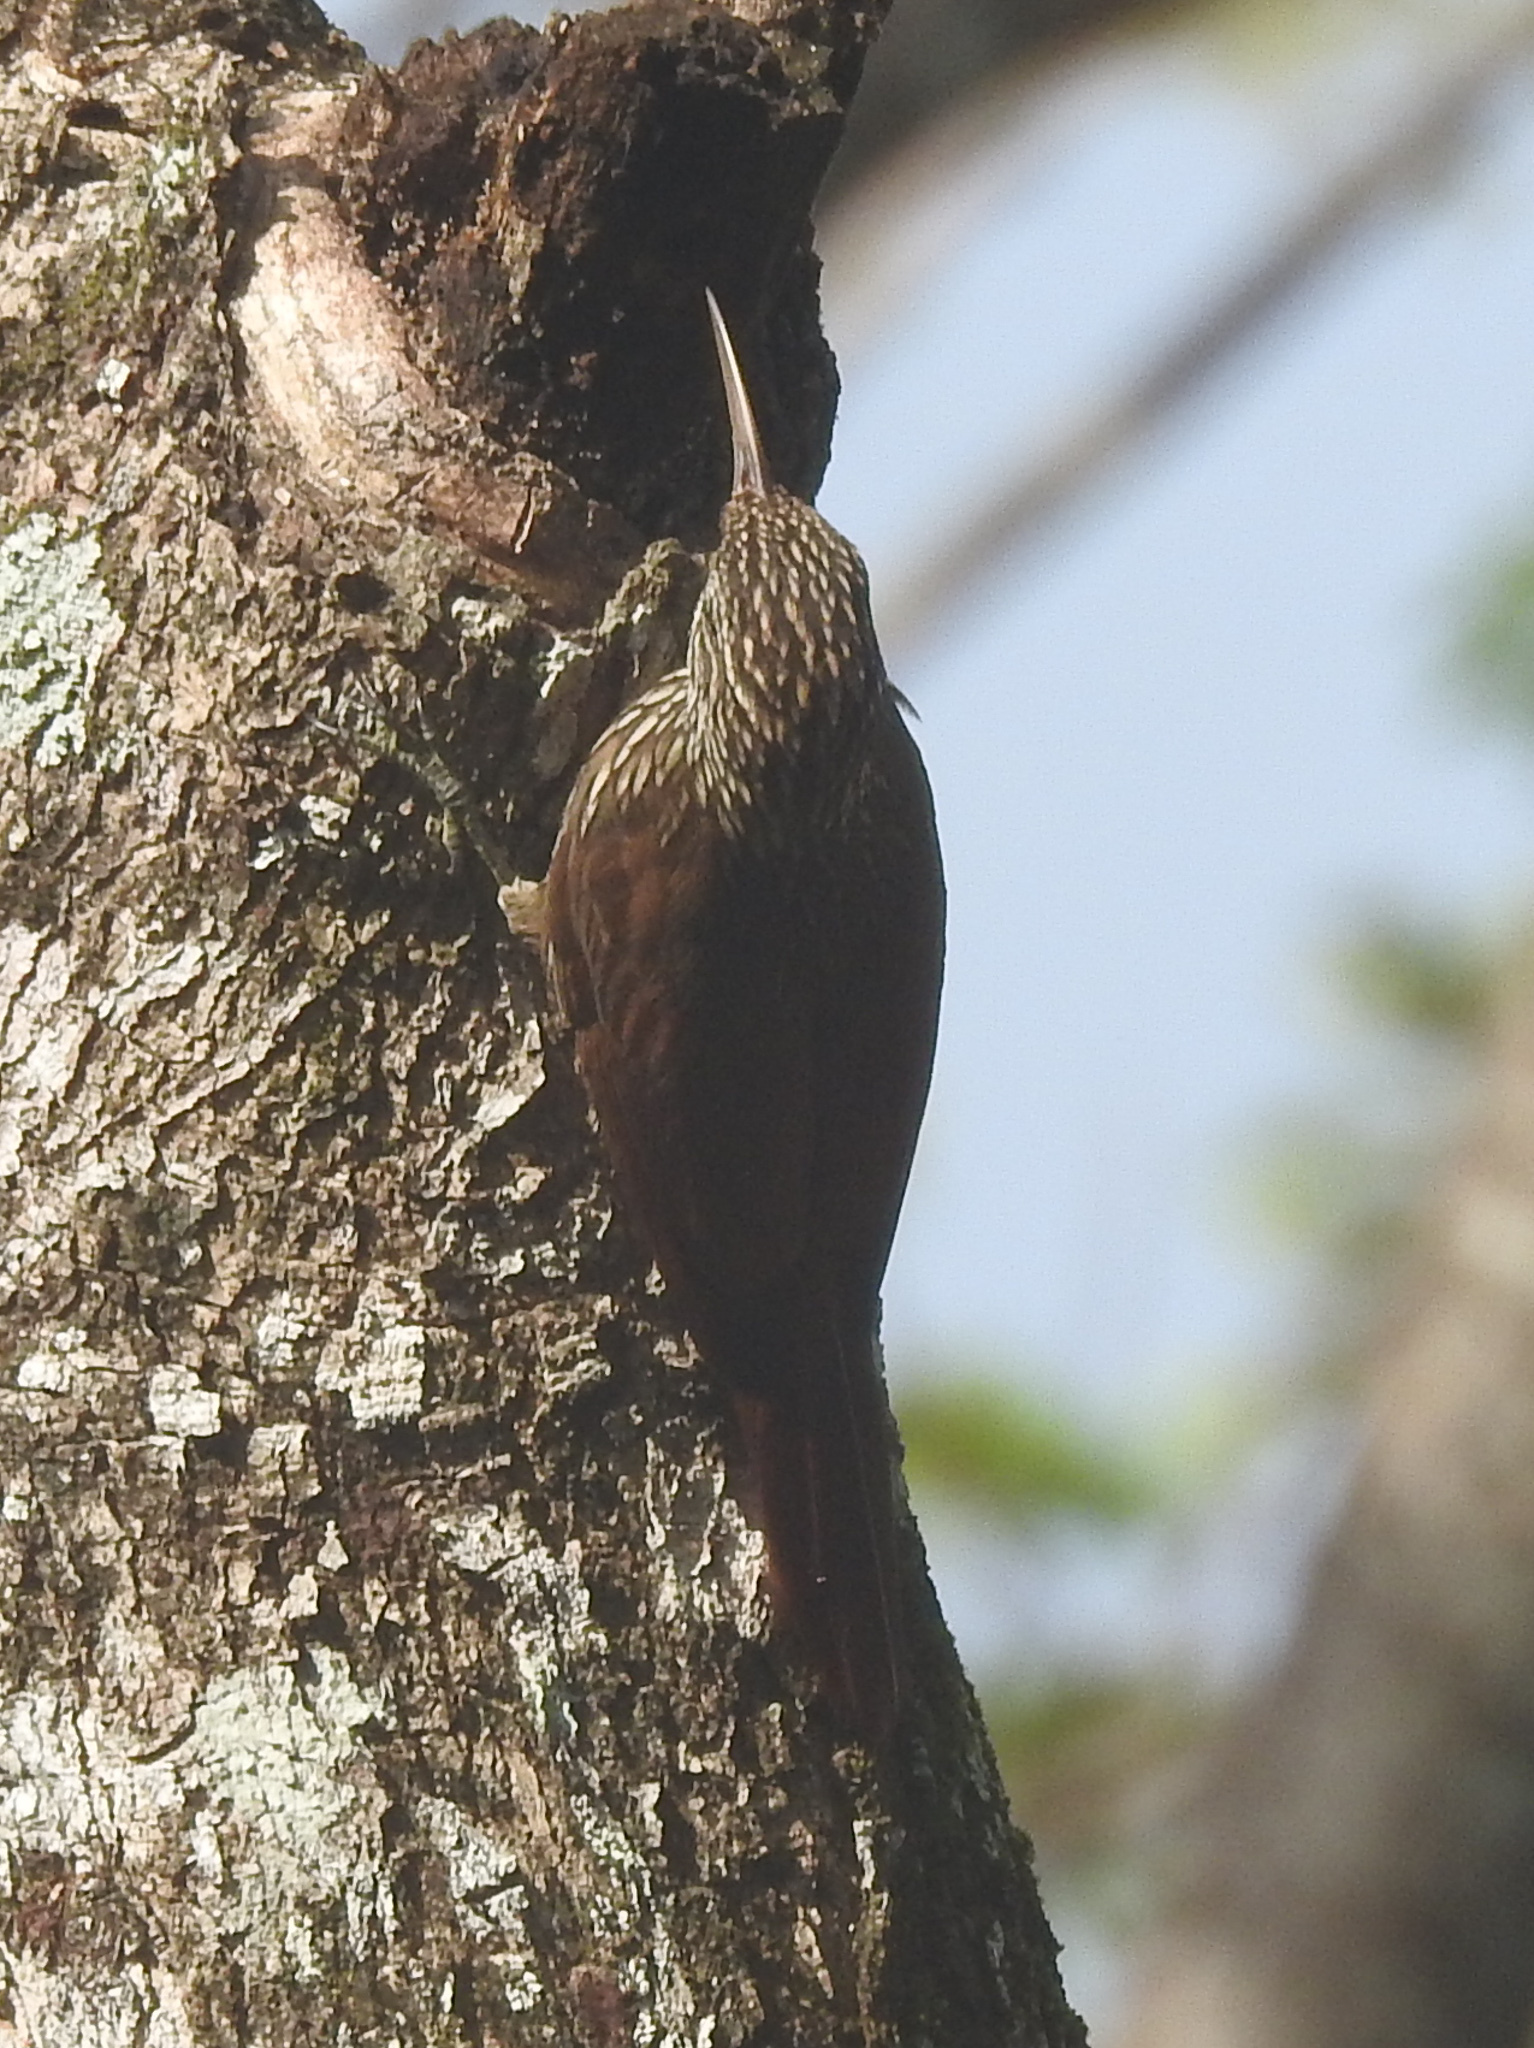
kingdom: Animalia
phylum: Chordata
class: Aves
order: Passeriformes
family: Furnariidae
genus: Lepidocolaptes
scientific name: Lepidocolaptes souleyetii
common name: Streak-headed woodcreeper
